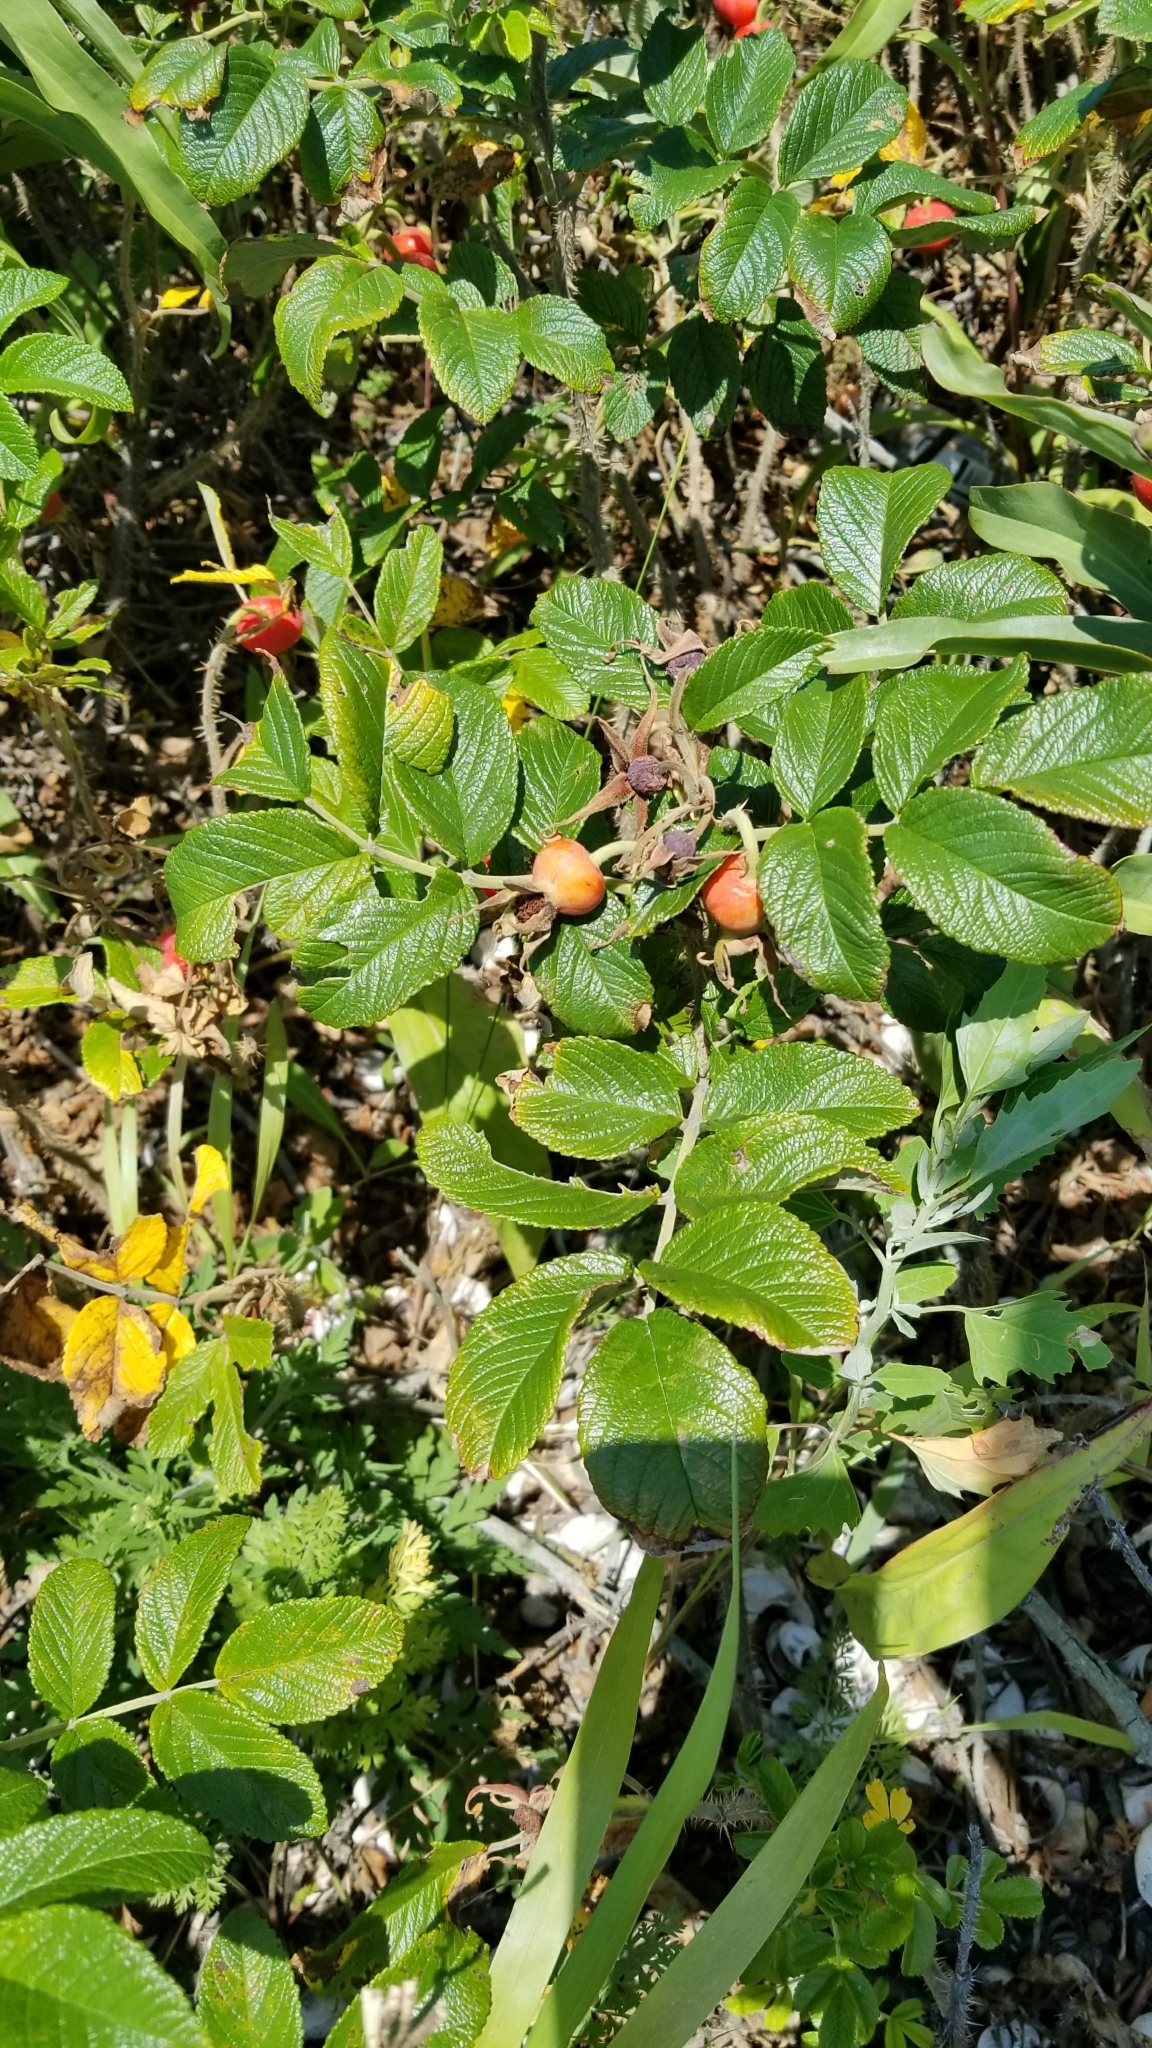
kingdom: Plantae
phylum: Tracheophyta
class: Magnoliopsida
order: Rosales
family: Rosaceae
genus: Rosa
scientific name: Rosa rugosa
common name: Japanese rose
